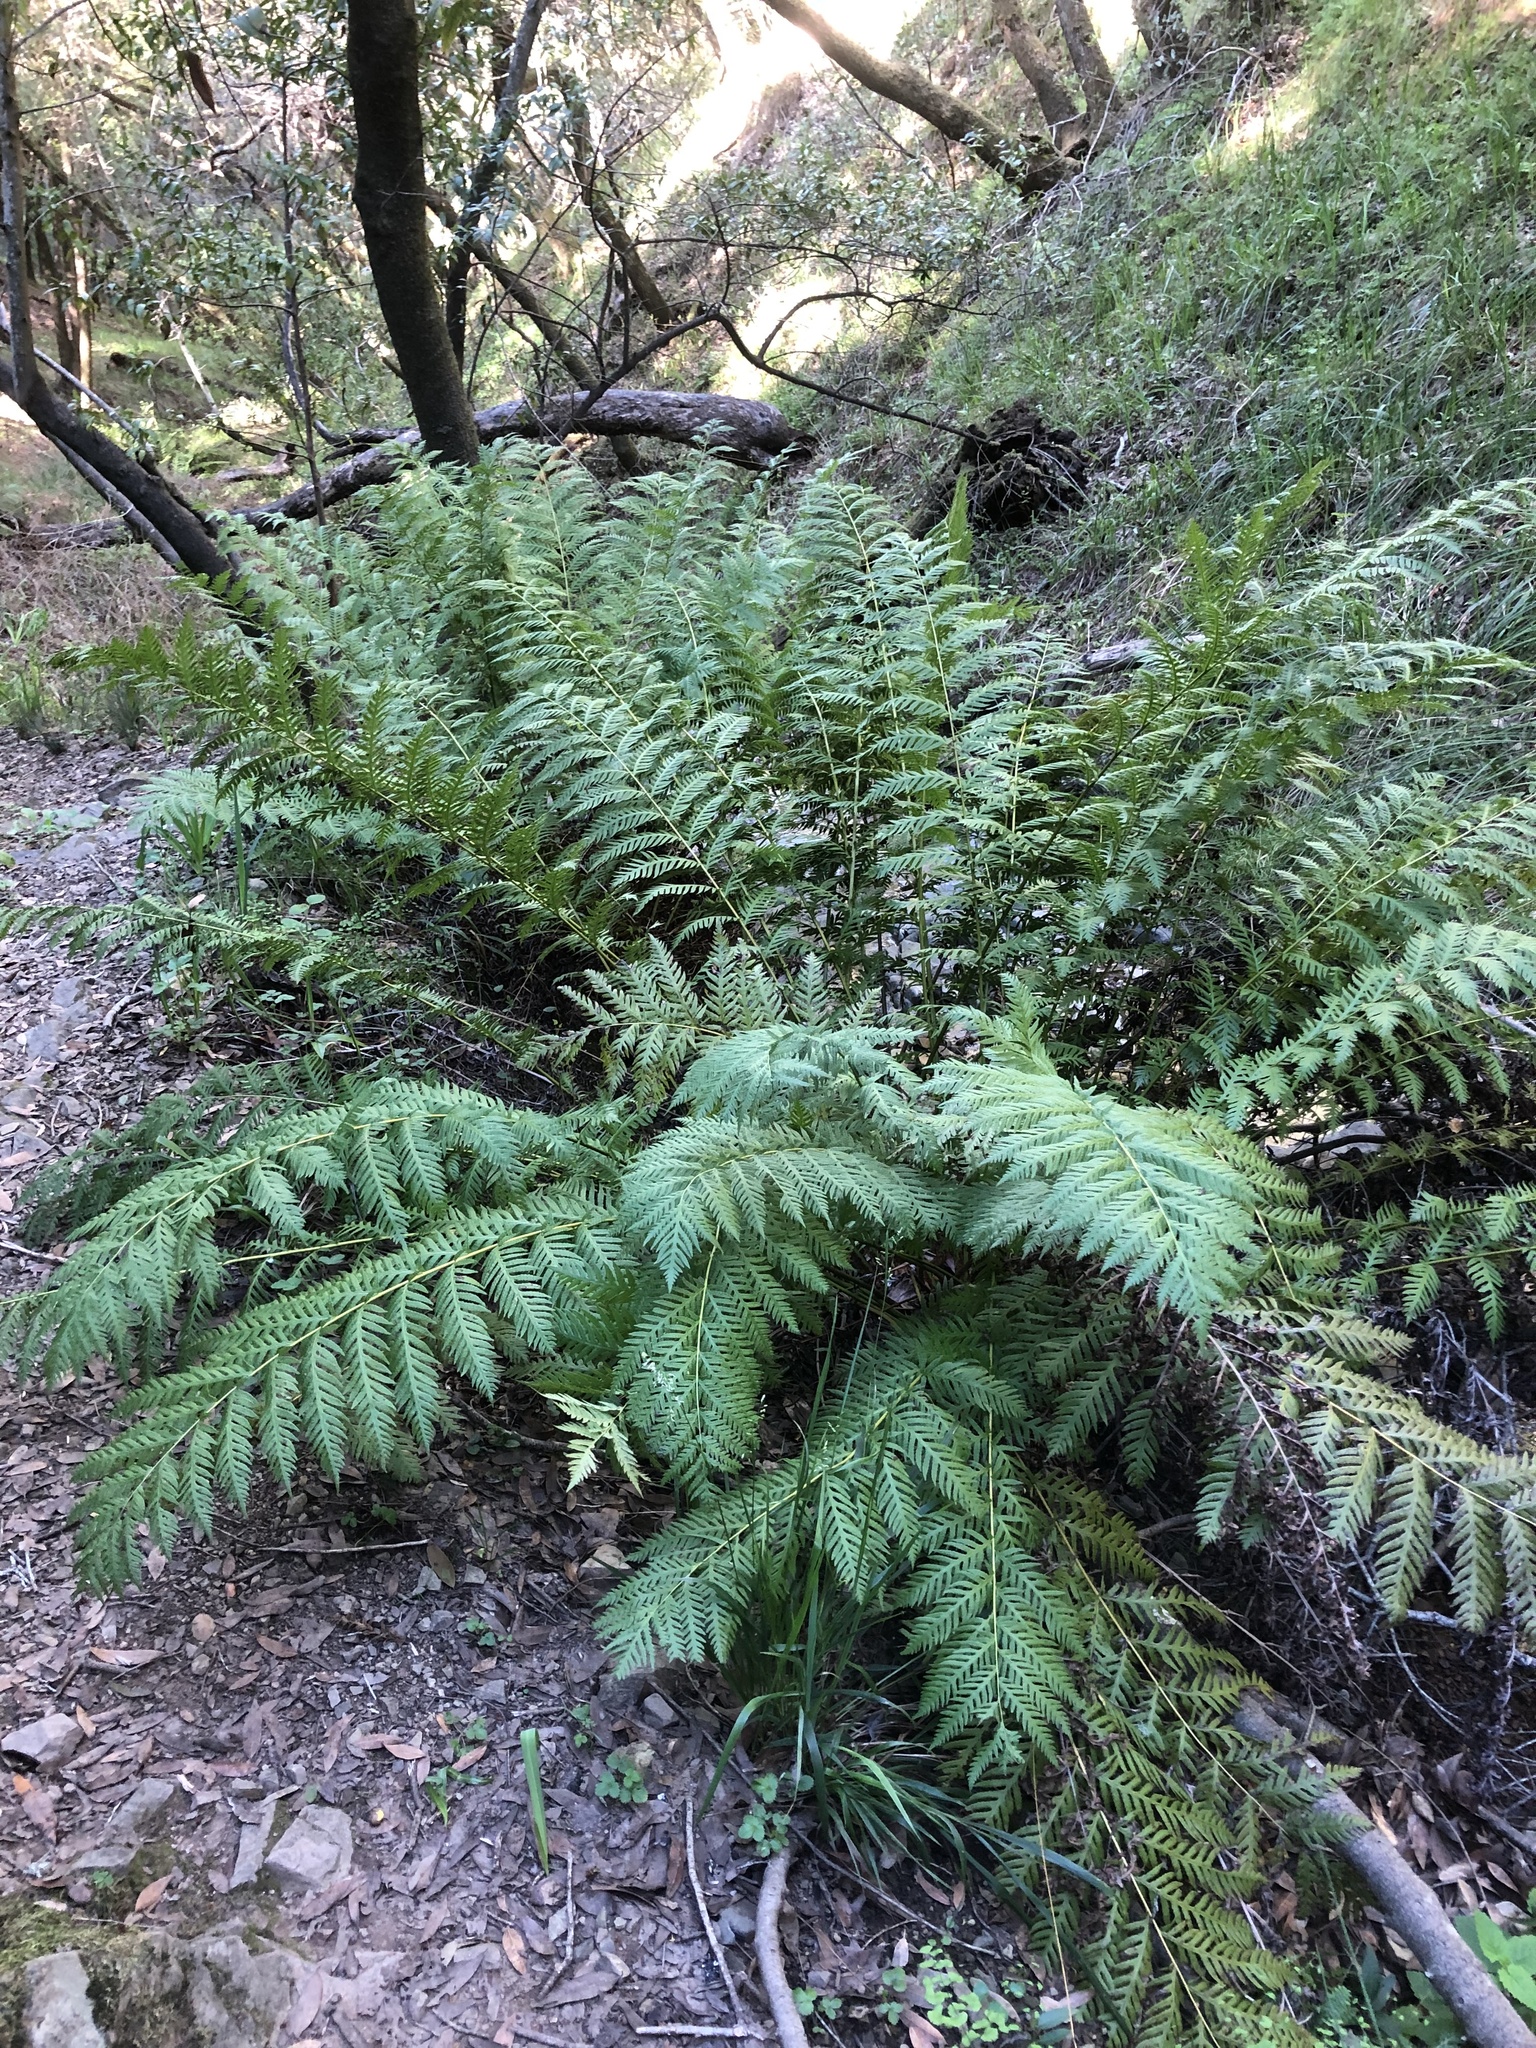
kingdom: Plantae
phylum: Tracheophyta
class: Polypodiopsida
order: Polypodiales
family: Blechnaceae
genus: Woodwardia
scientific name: Woodwardia fimbriata
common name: Giant chain fern
